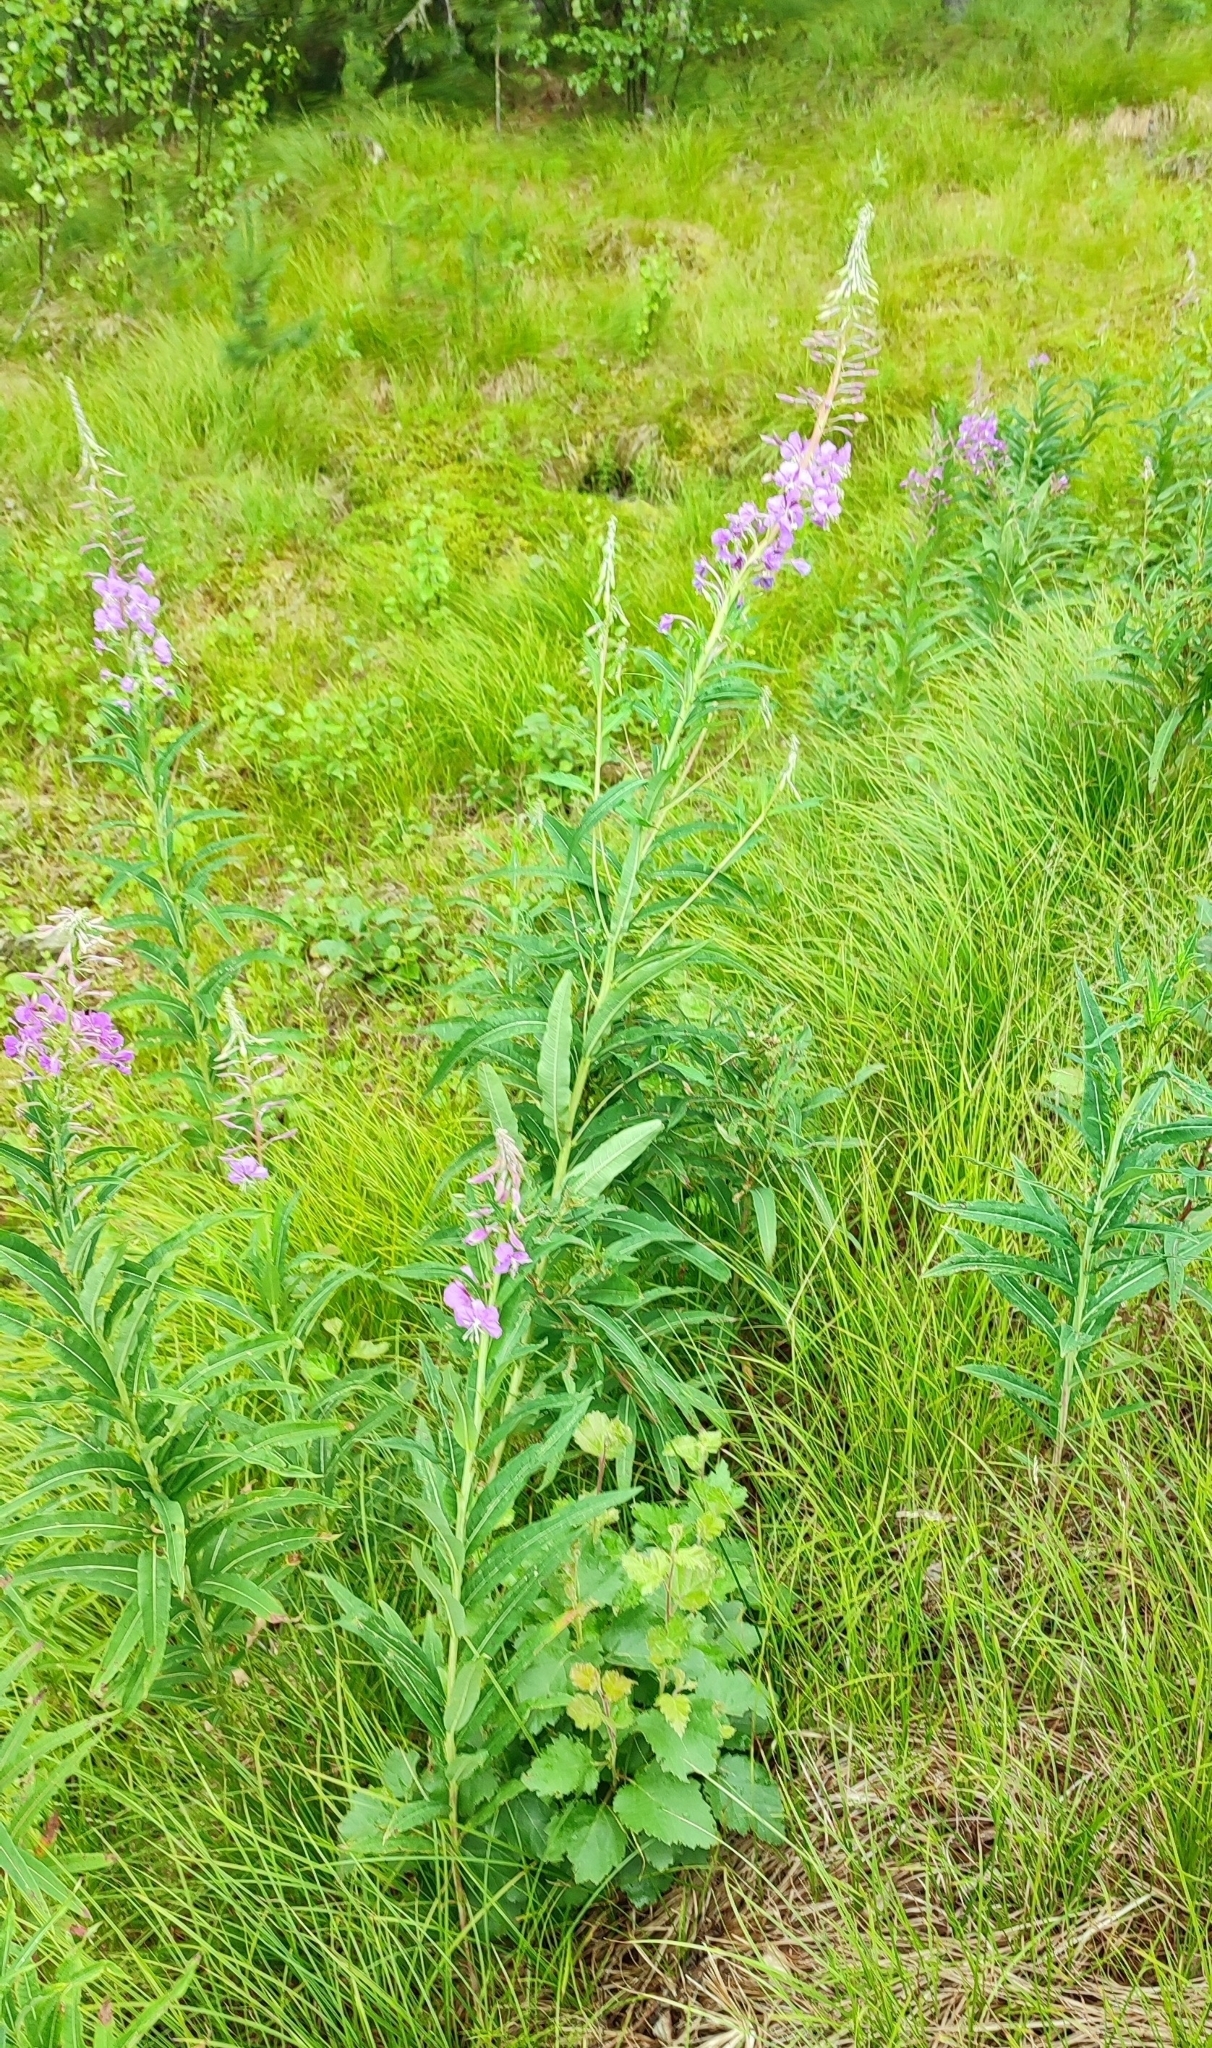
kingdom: Plantae
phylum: Tracheophyta
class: Magnoliopsida
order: Myrtales
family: Onagraceae
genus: Chamaenerion
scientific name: Chamaenerion angustifolium
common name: Fireweed
